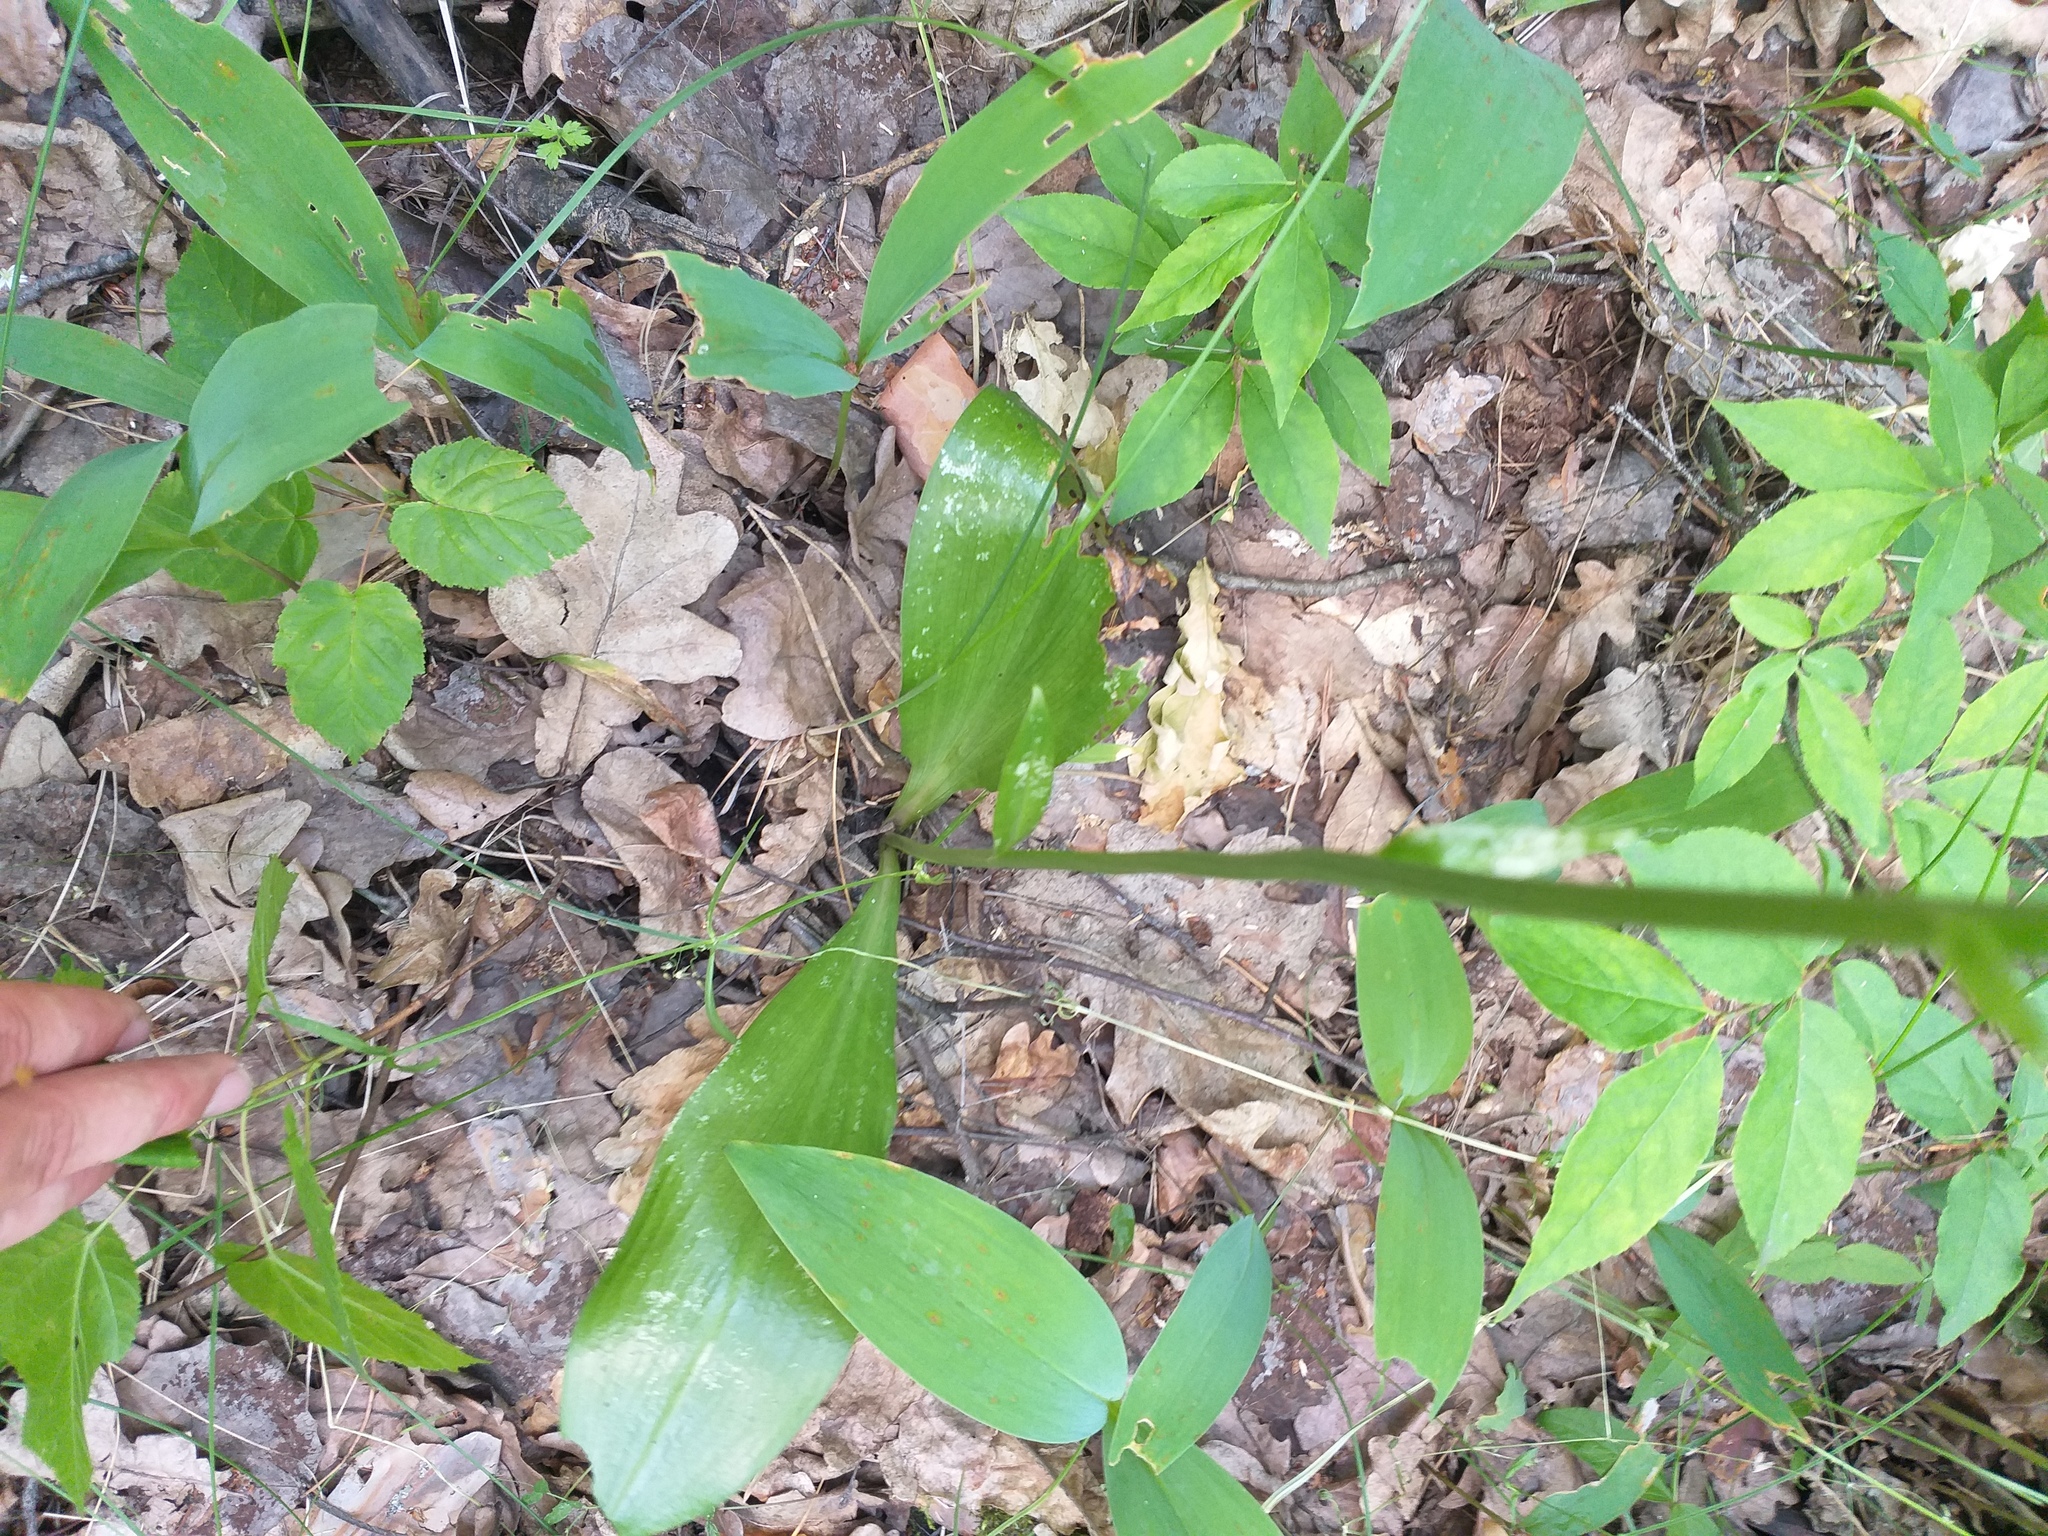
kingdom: Plantae
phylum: Tracheophyta
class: Liliopsida
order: Asparagales
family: Orchidaceae
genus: Platanthera
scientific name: Platanthera bifolia
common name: Lesser butterfly-orchid
